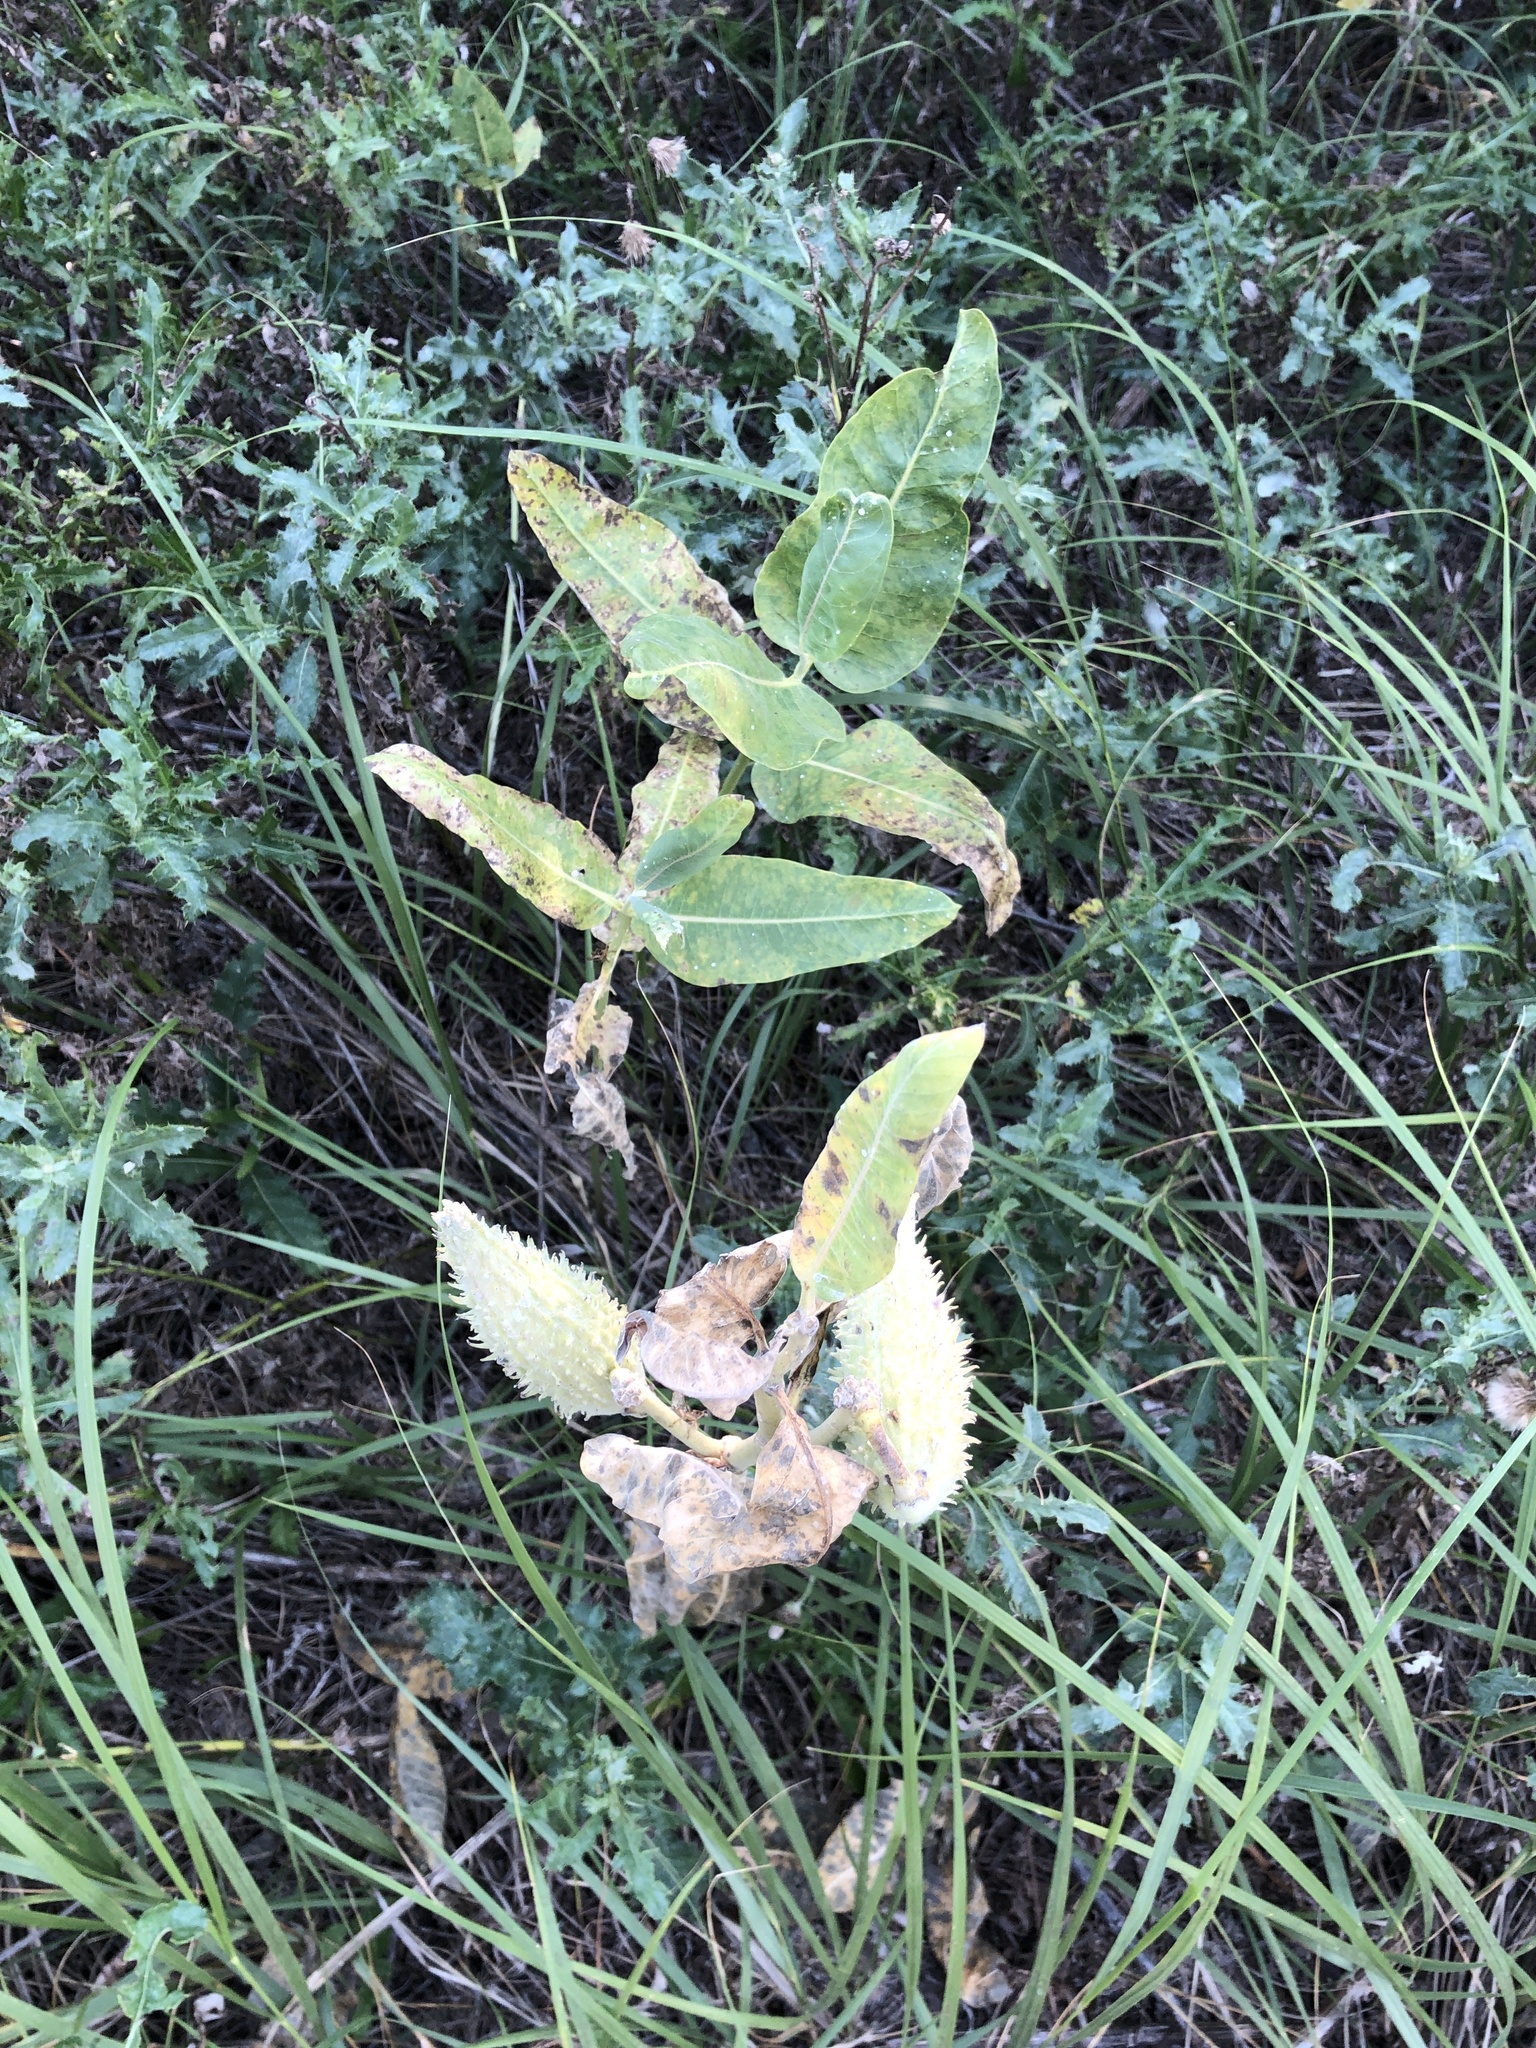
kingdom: Plantae
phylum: Tracheophyta
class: Magnoliopsida
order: Gentianales
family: Apocynaceae
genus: Asclepias
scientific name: Asclepias speciosa
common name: Showy milkweed
